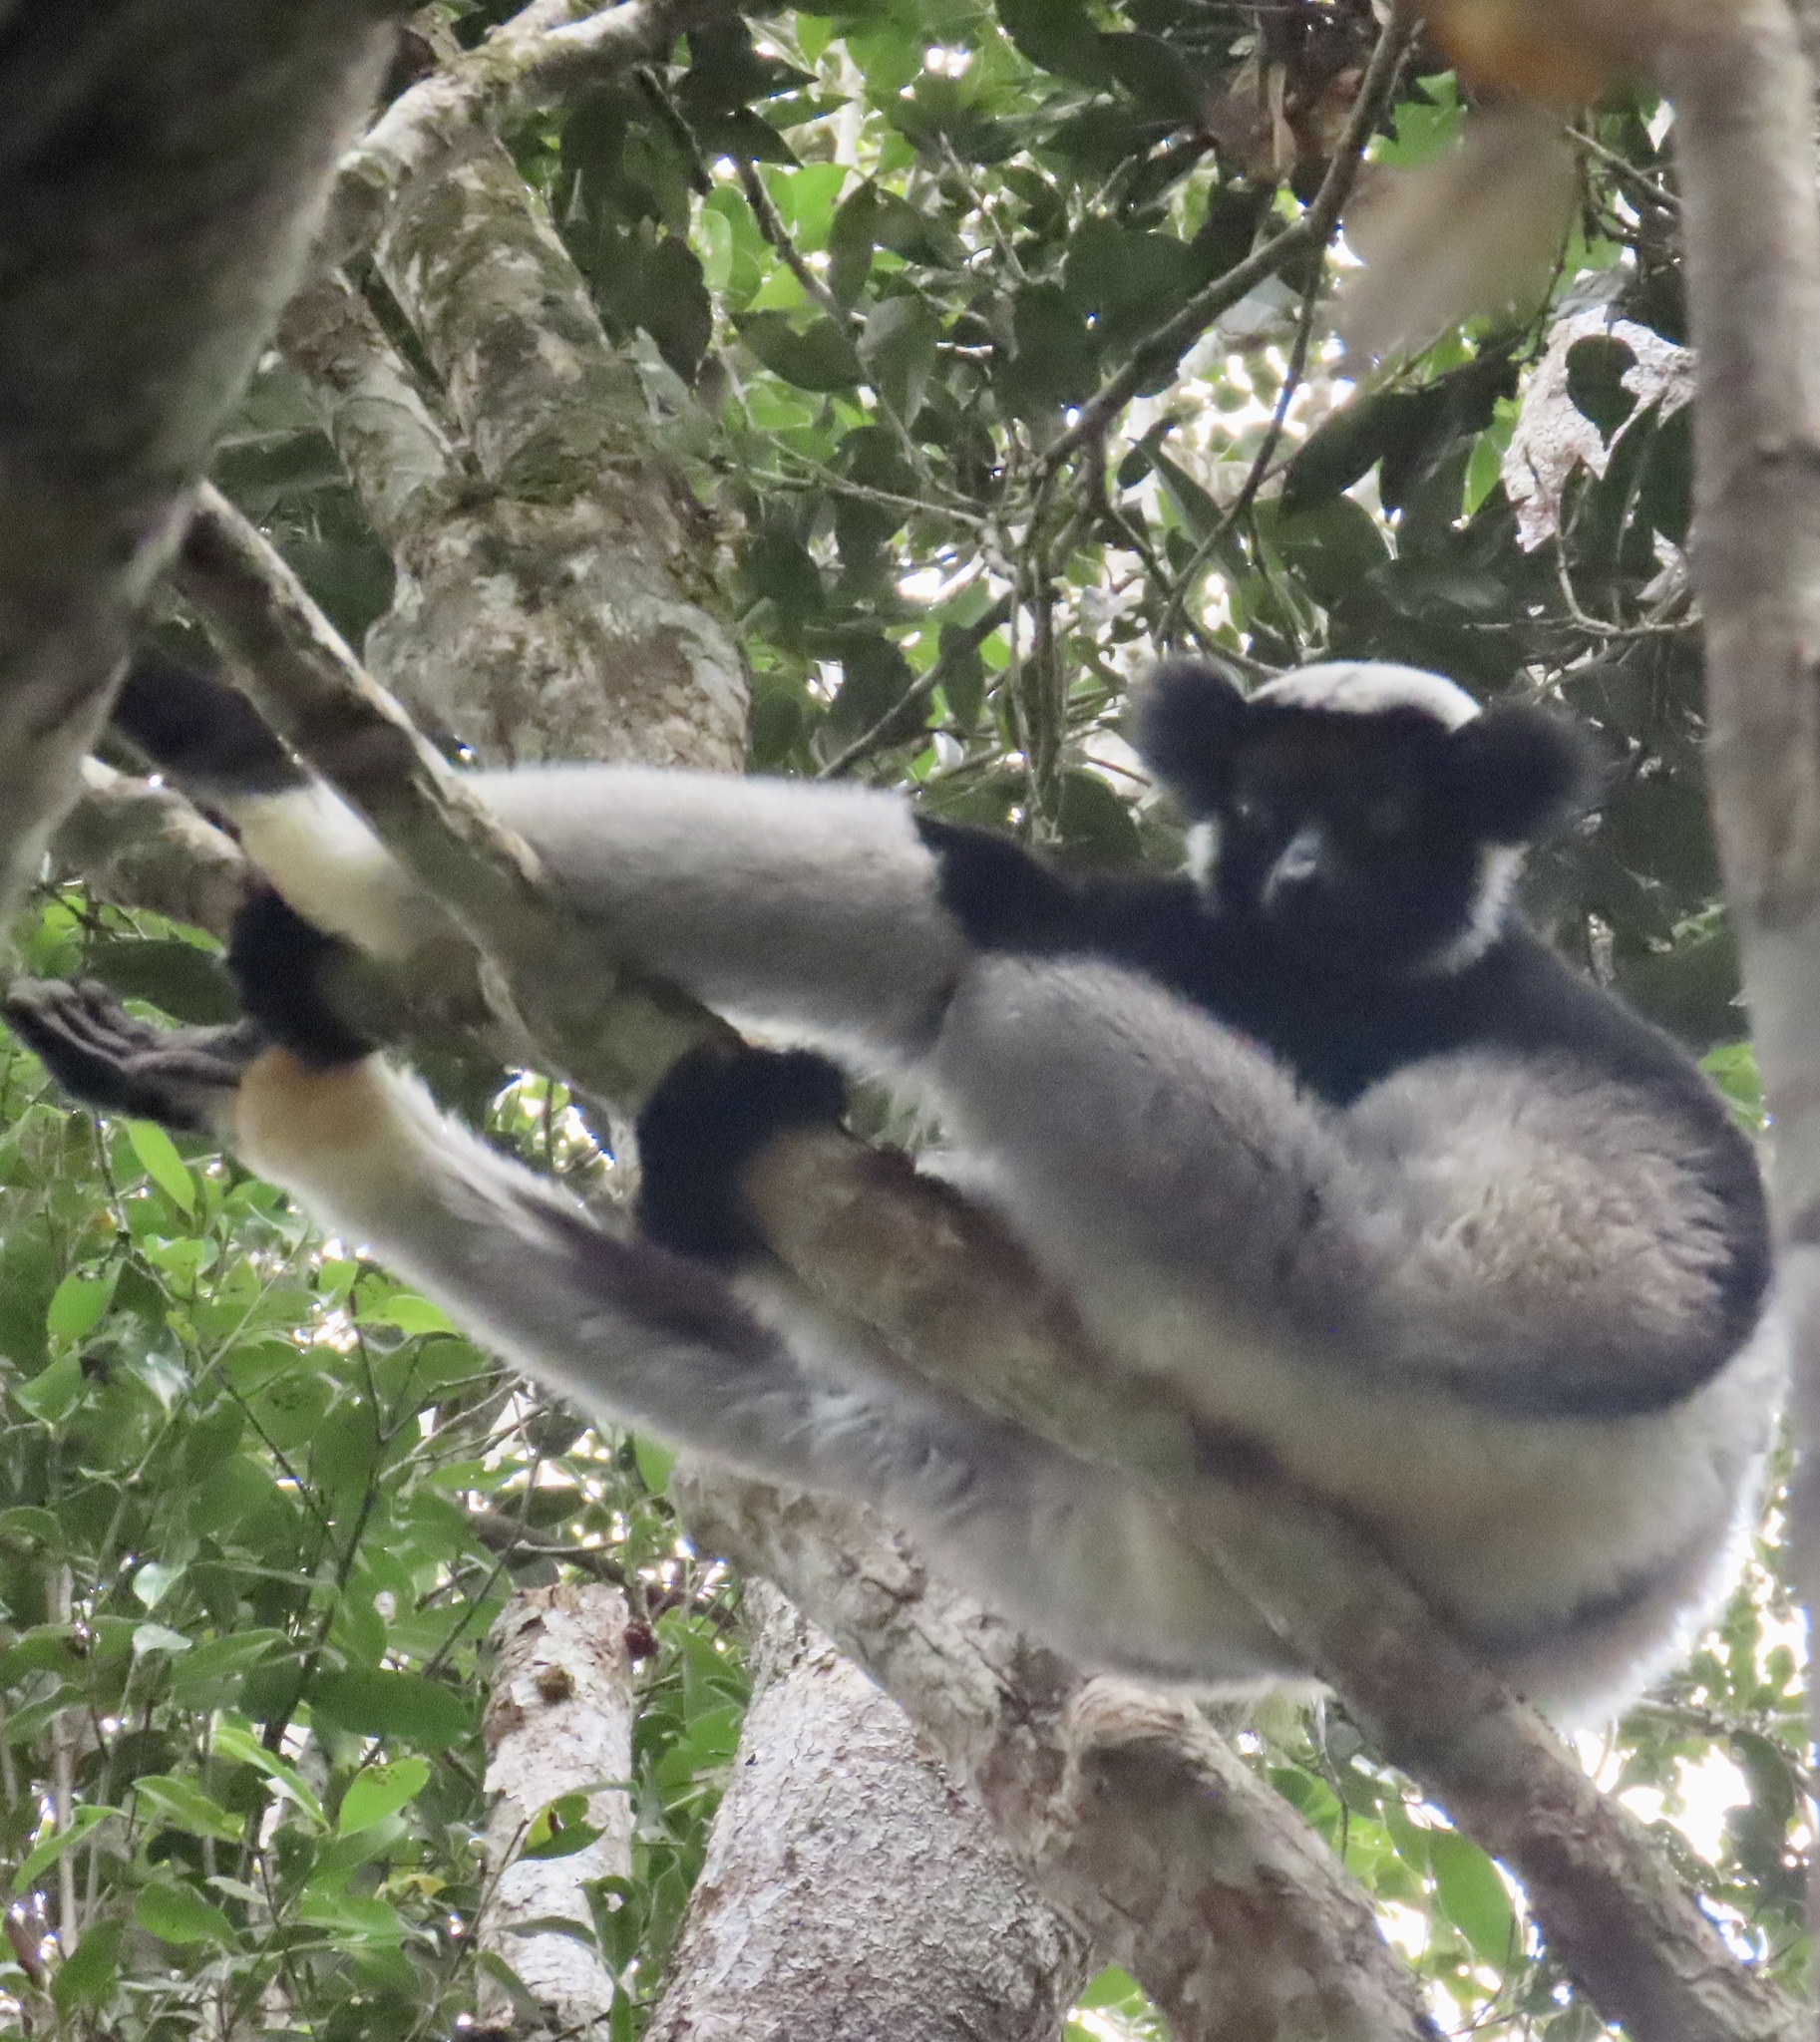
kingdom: Animalia
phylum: Chordata
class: Mammalia
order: Primates
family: Indriidae
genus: Indri
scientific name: Indri indri
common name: Indri
